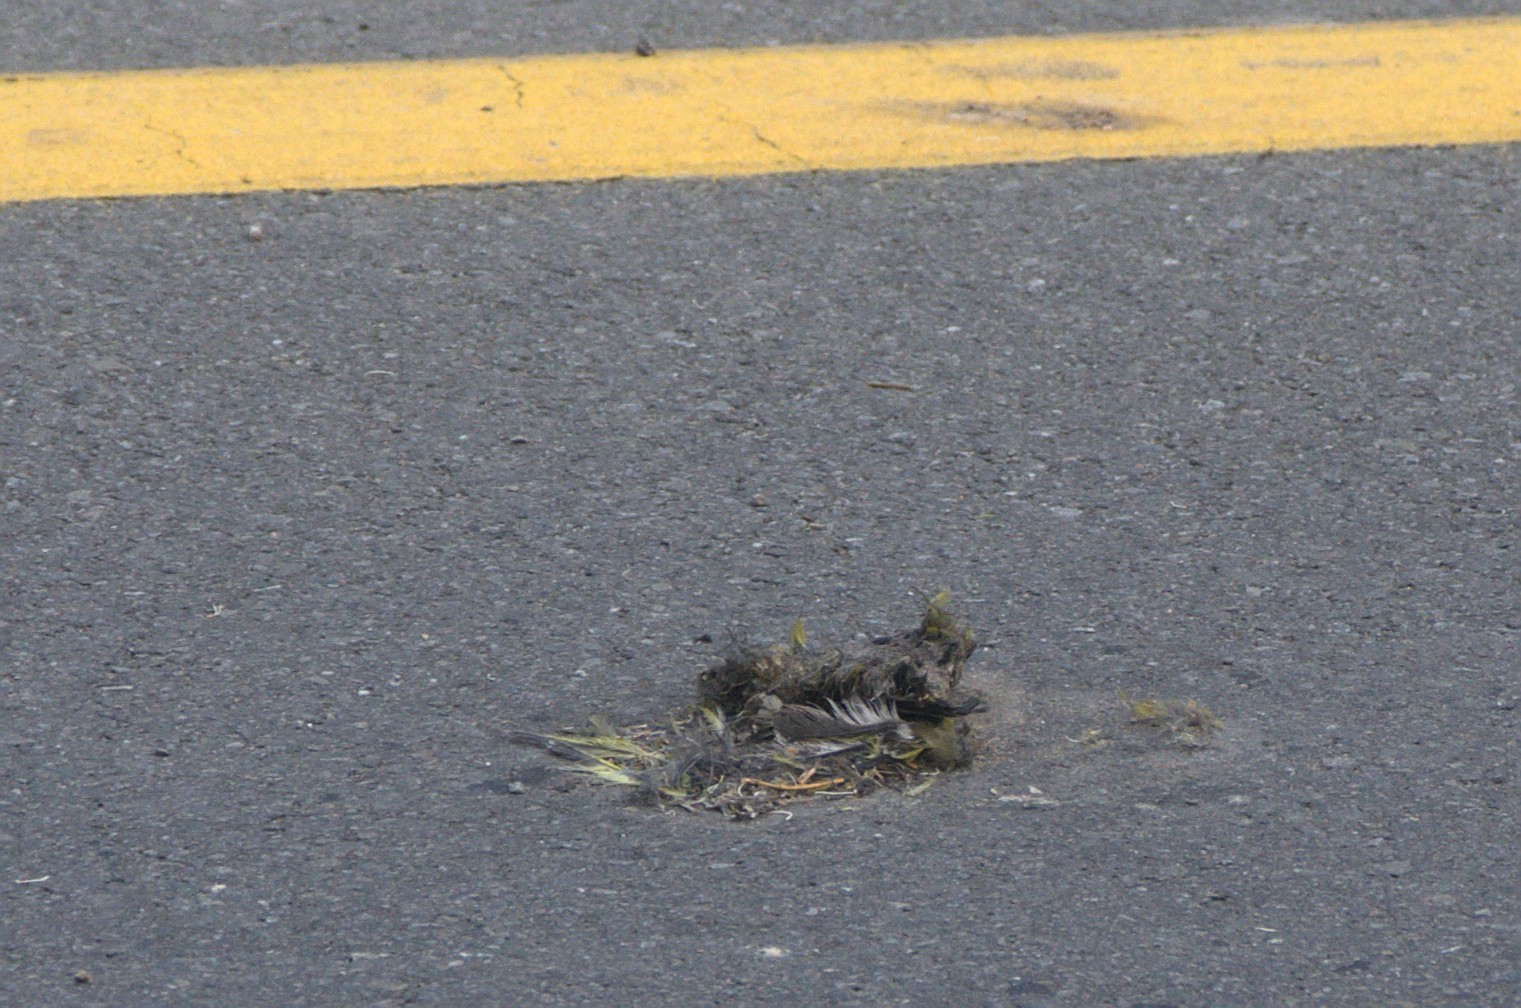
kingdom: Plantae
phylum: Tracheophyta
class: Liliopsida
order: Poales
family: Poaceae
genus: Chloris
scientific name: Chloris chloris
